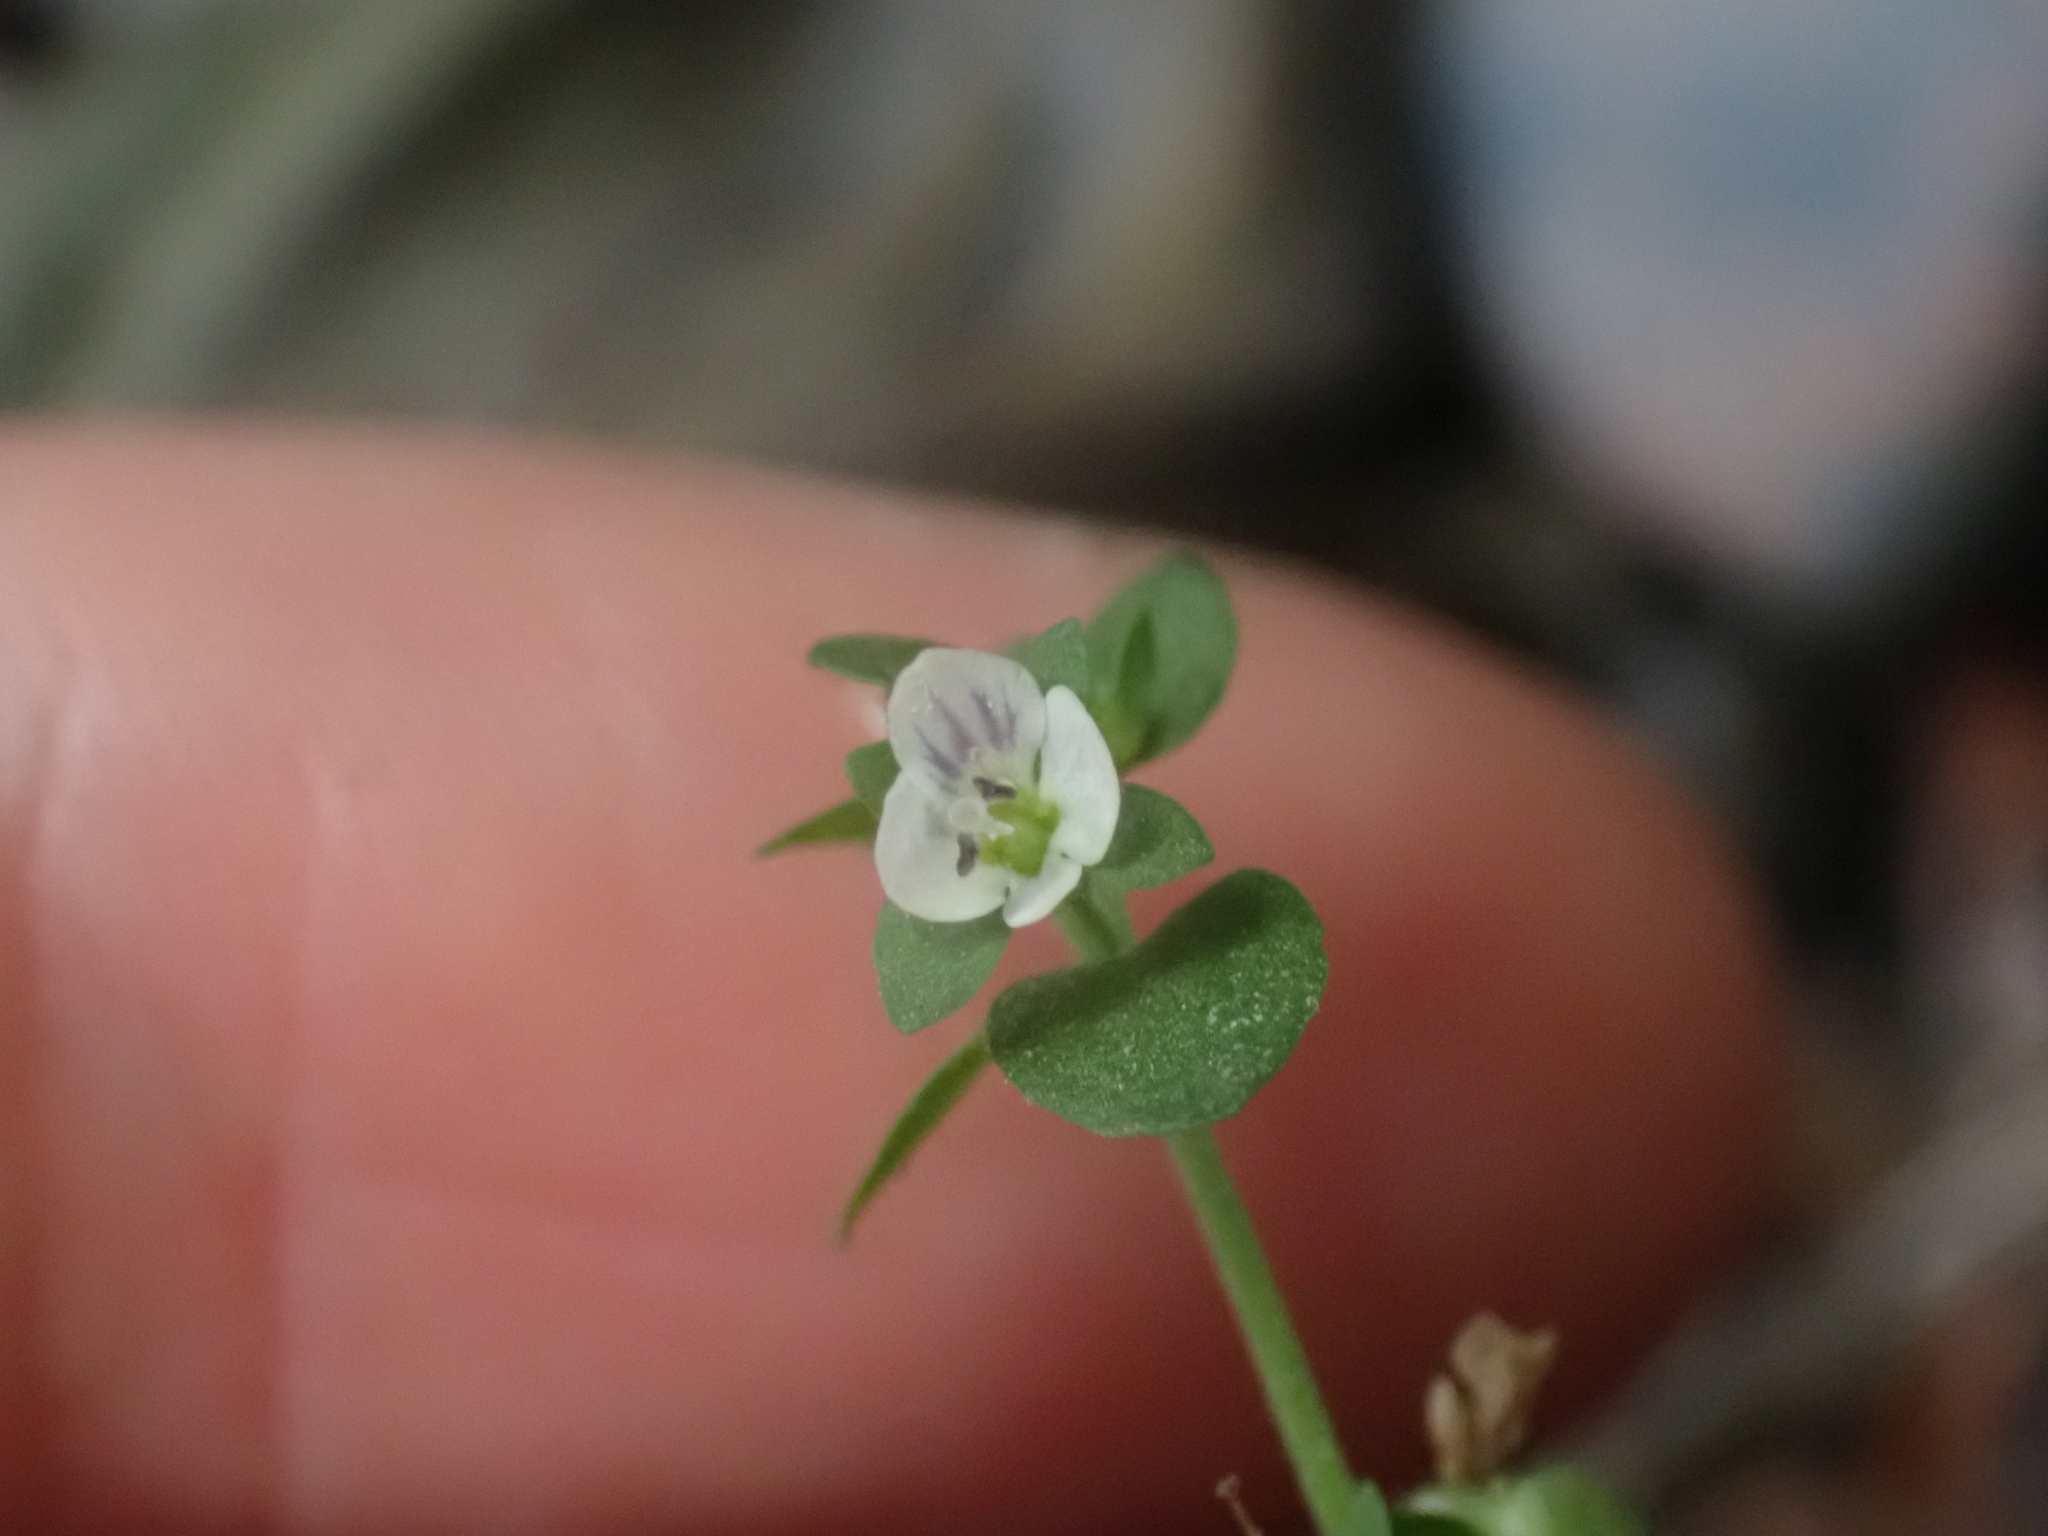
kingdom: Plantae
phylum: Tracheophyta
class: Magnoliopsida
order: Lamiales
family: Plantaginaceae
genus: Veronica
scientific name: Veronica serpyllifolia
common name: Thyme-leaved speedwell
